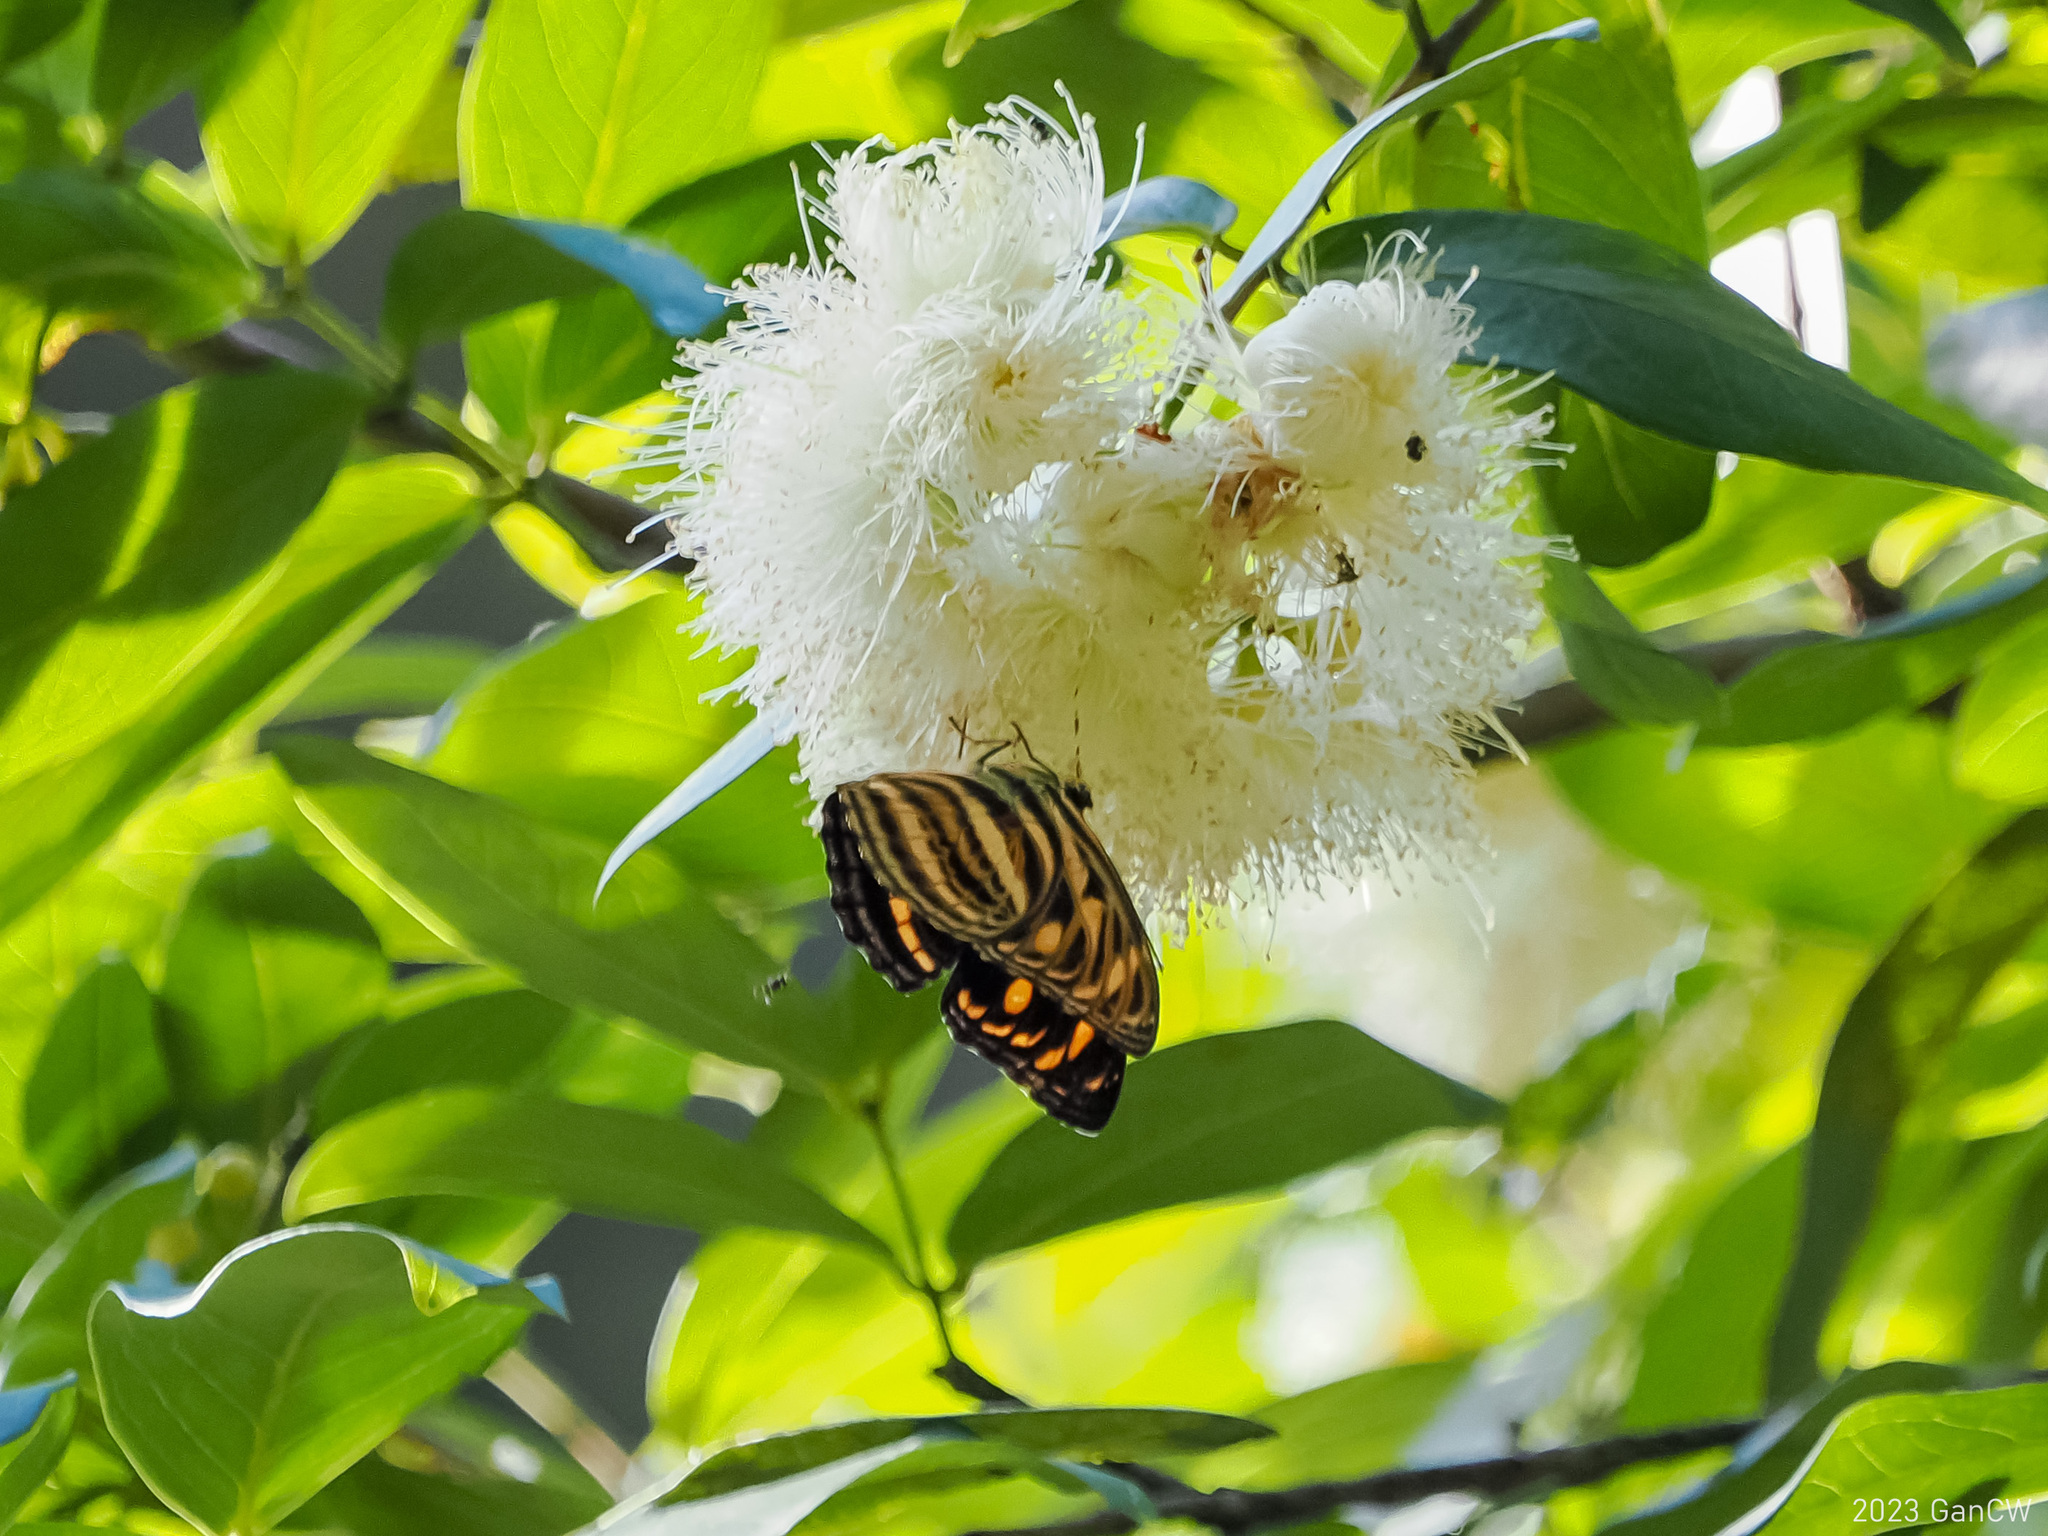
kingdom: Animalia
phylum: Arthropoda
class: Insecta
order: Lepidoptera
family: Nymphalidae
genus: Pantoporia
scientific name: Pantoporia eulimene
